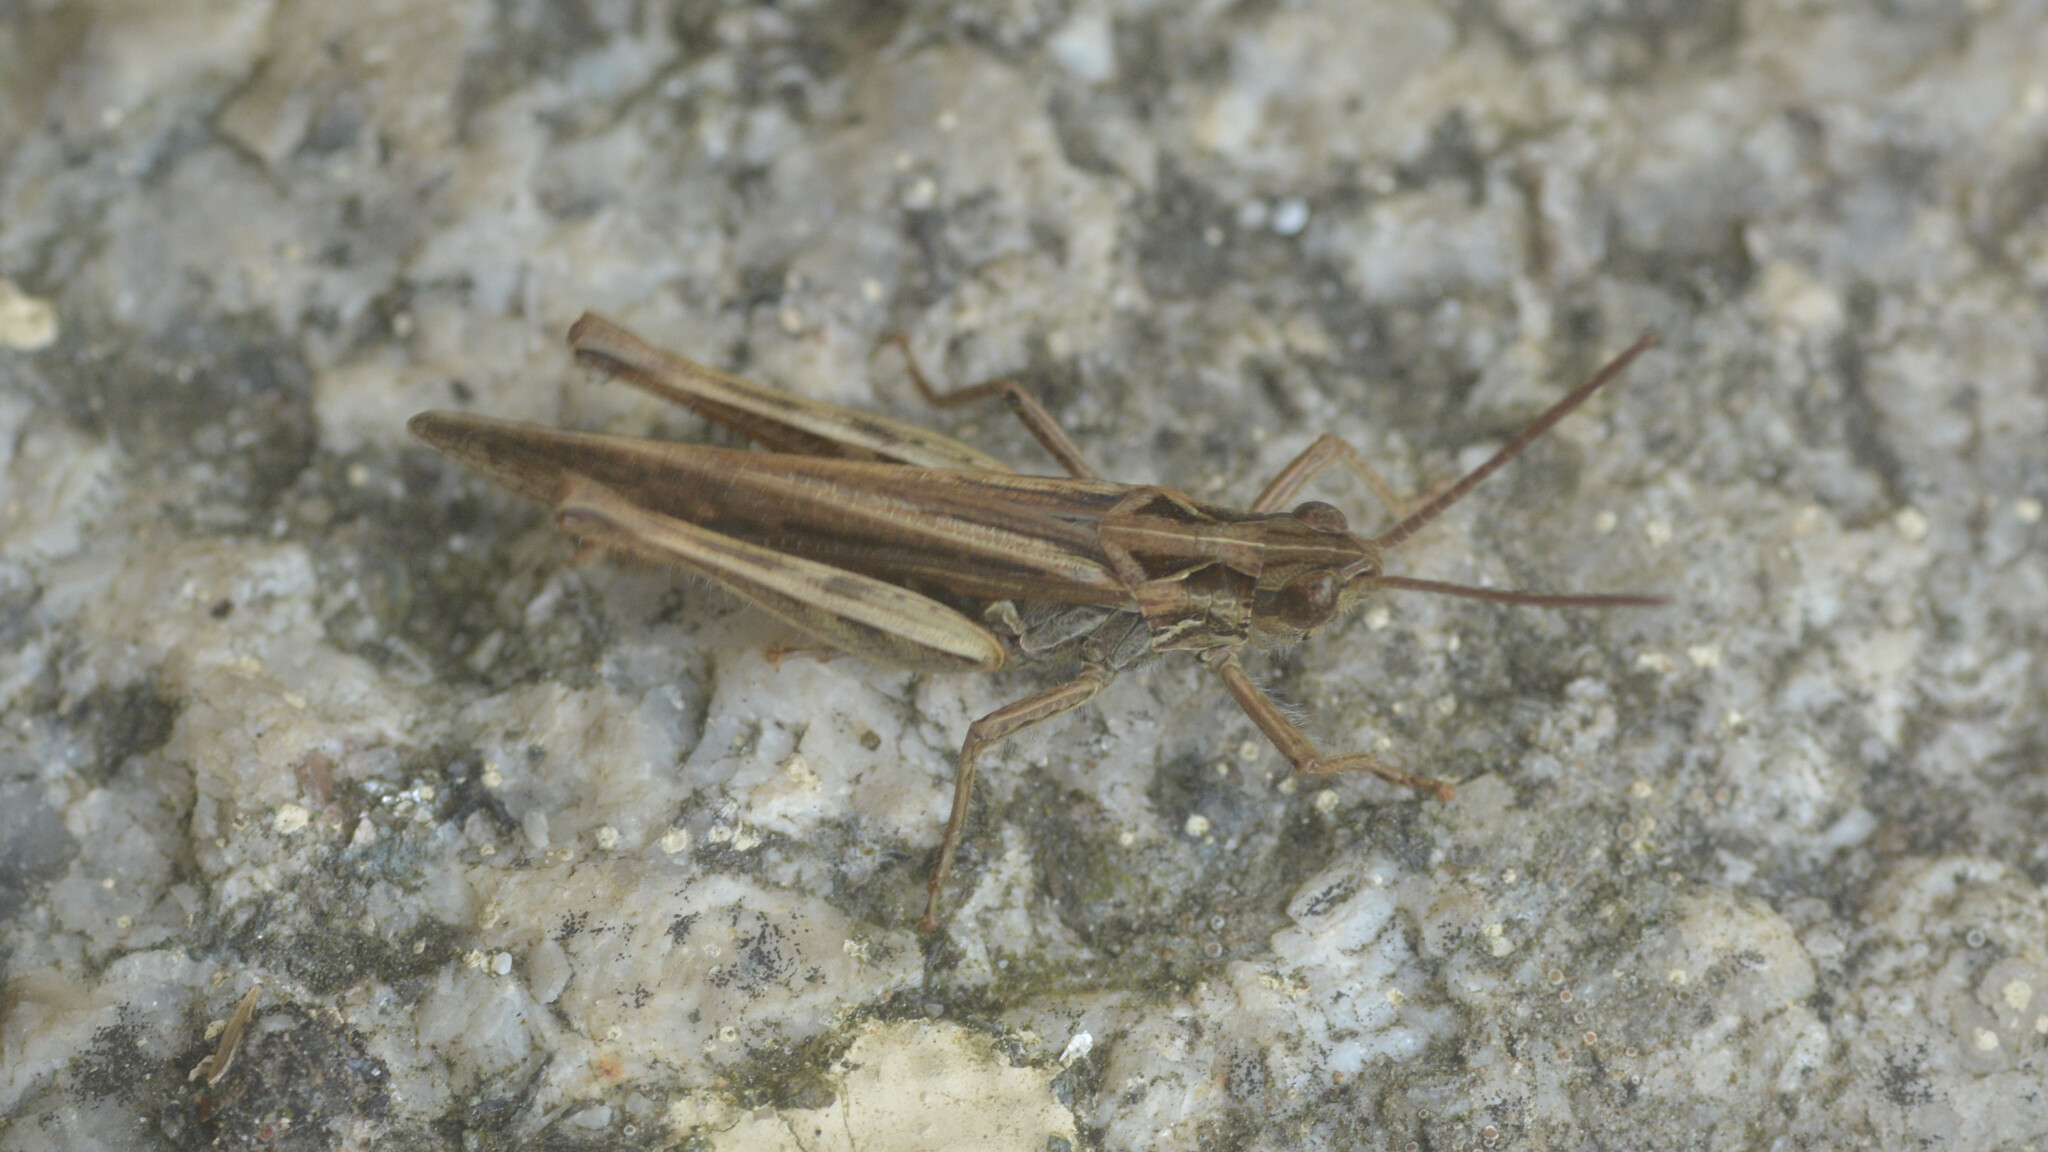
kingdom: Animalia
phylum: Arthropoda
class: Insecta
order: Orthoptera
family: Acrididae
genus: Chorthippus
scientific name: Chorthippus brunneus
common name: Field grasshopper
